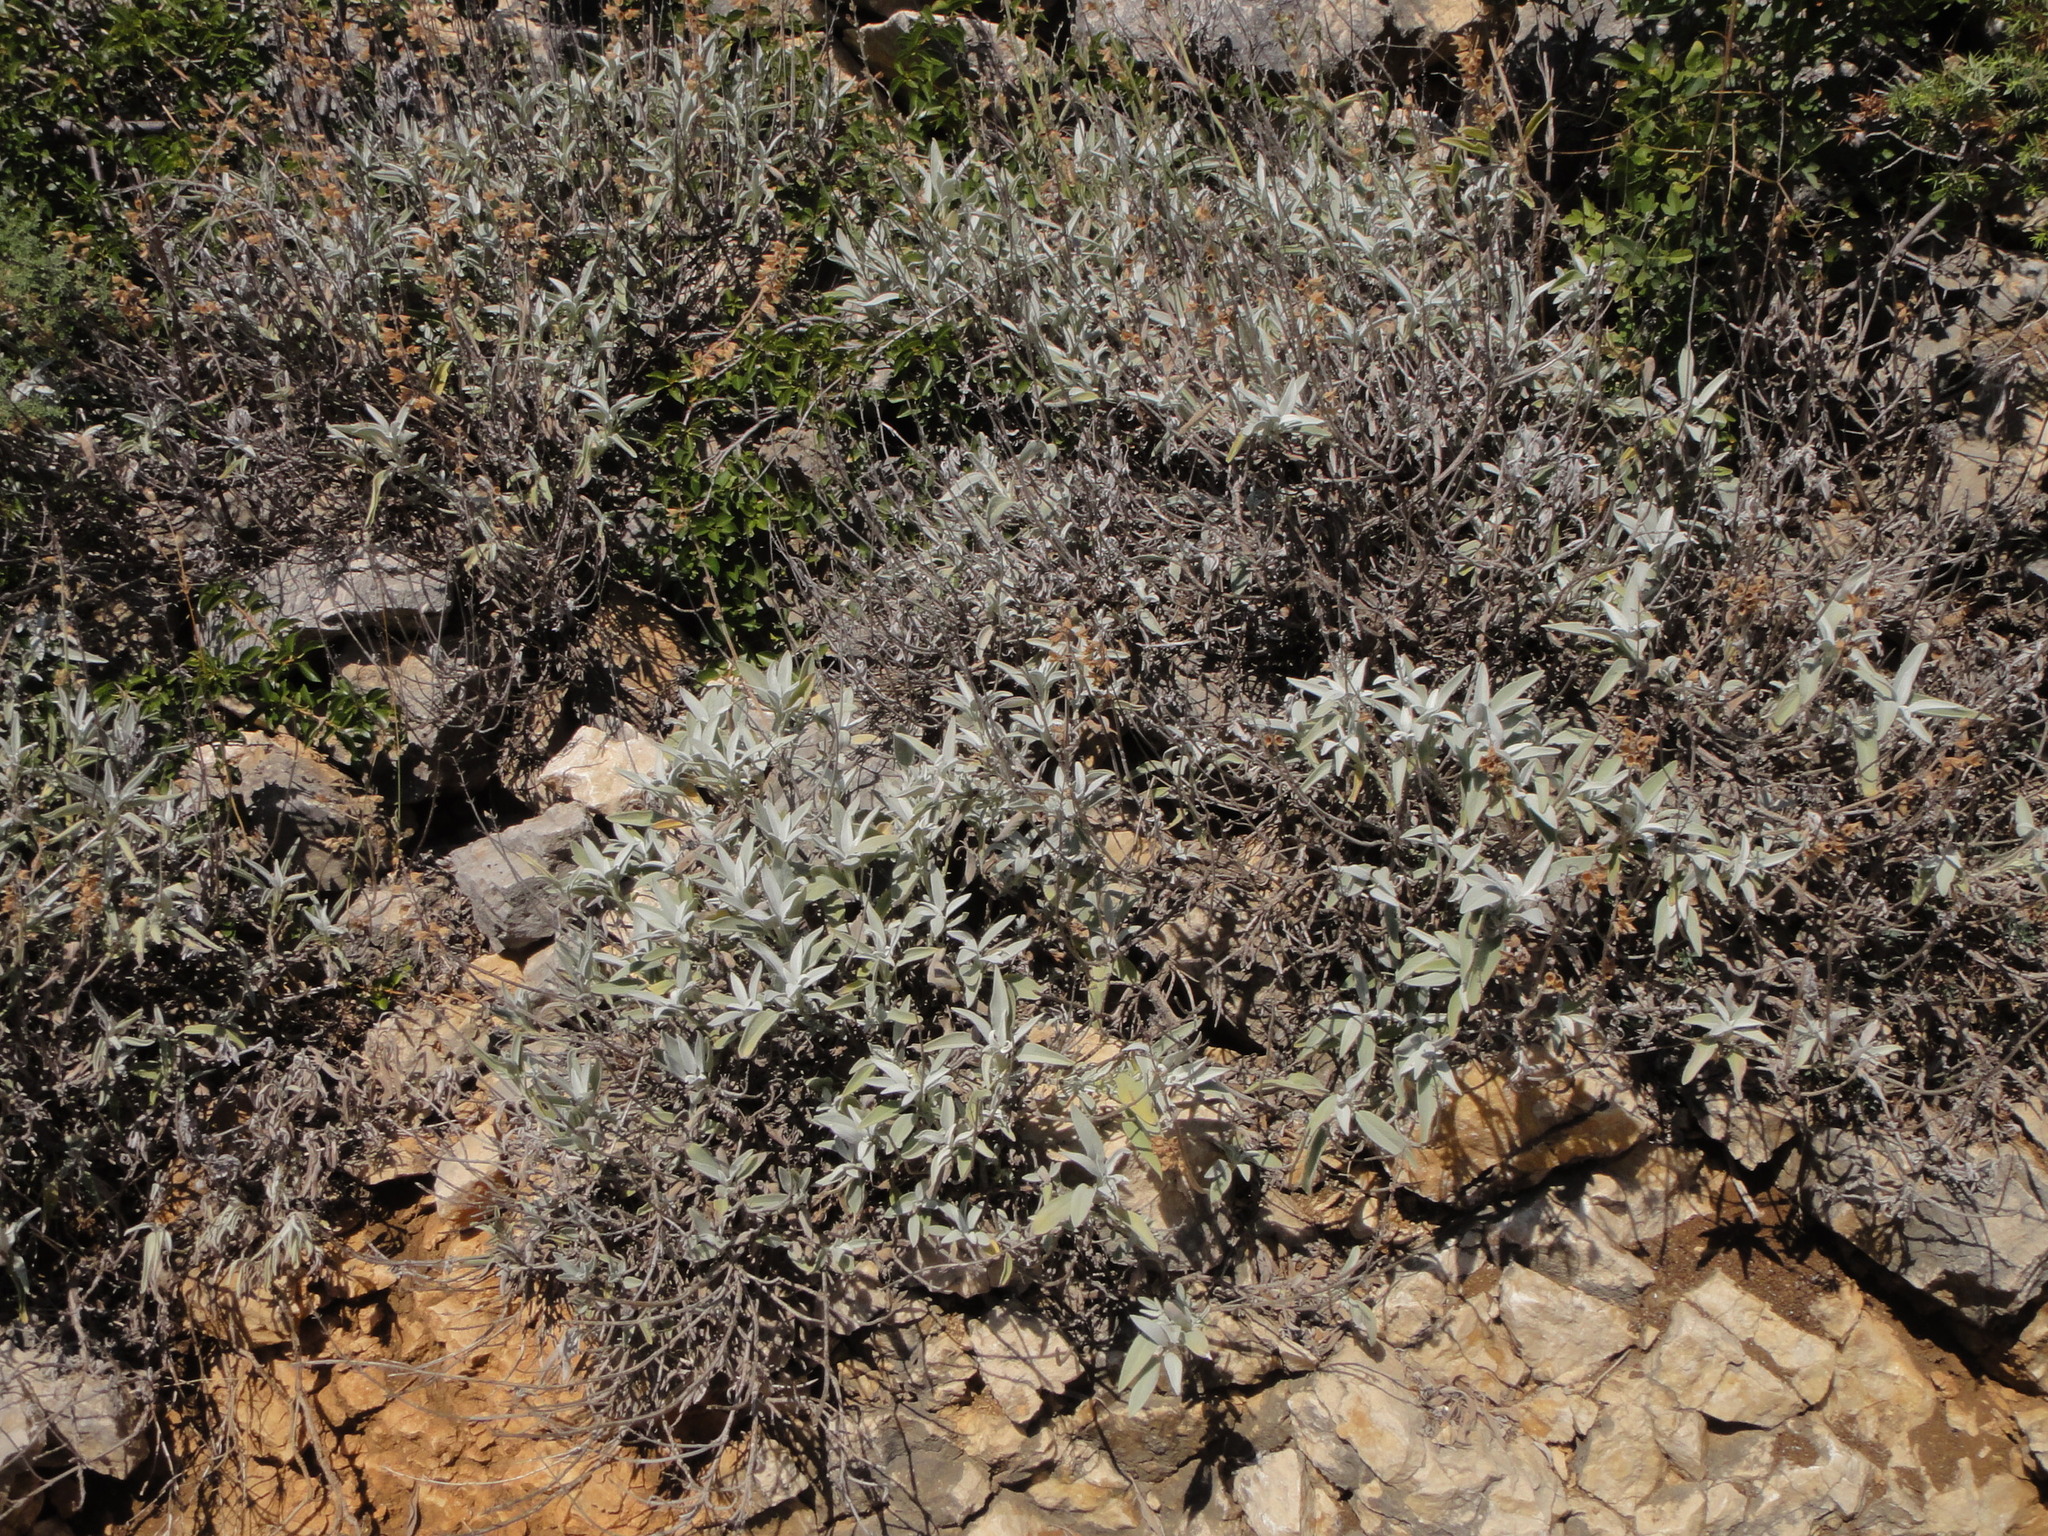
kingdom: Plantae
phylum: Tracheophyta
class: Magnoliopsida
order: Lamiales
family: Lamiaceae
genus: Salvia
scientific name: Salvia officinalis
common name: Sage
